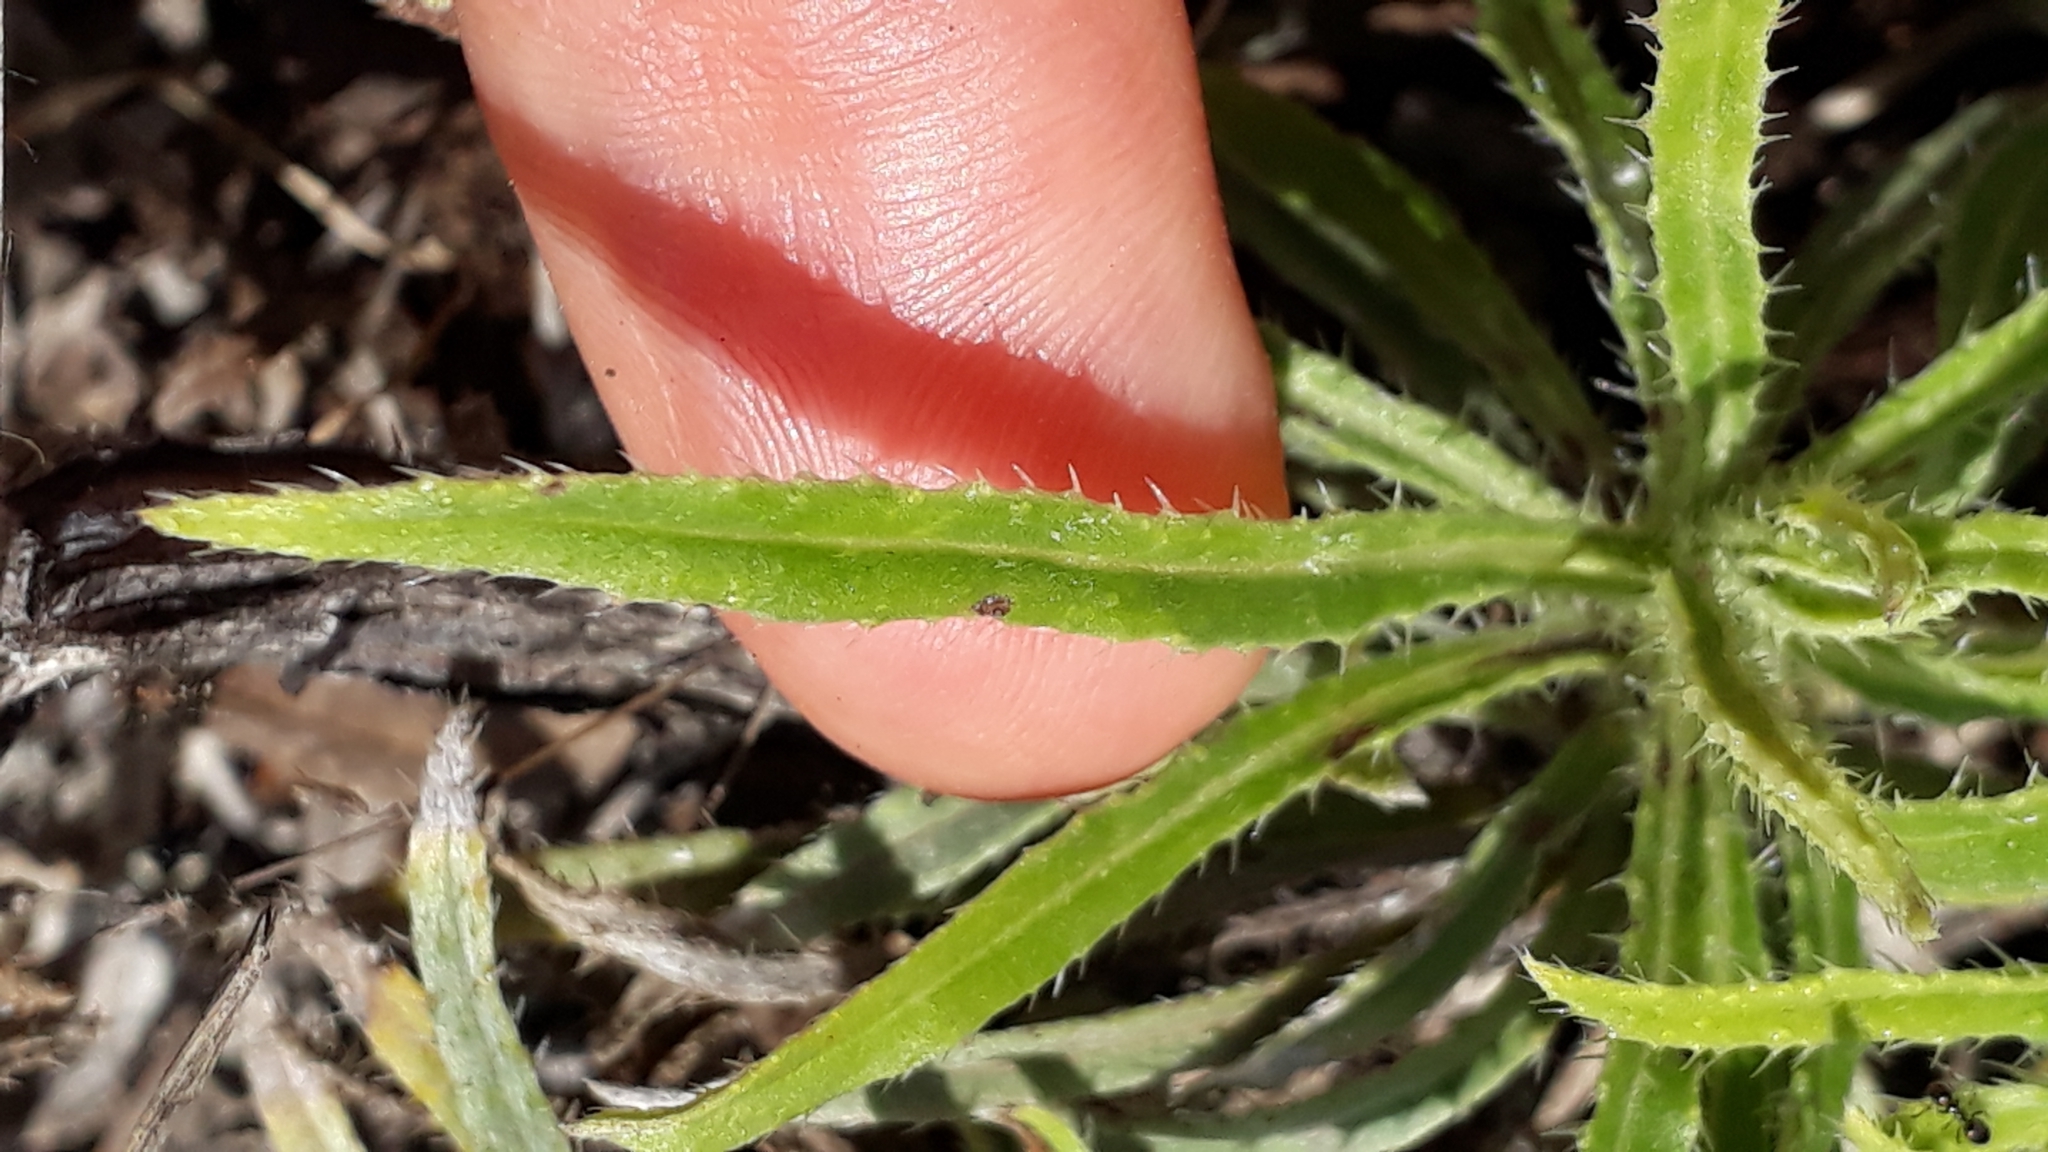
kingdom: Plantae
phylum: Tracheophyta
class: Magnoliopsida
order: Boraginales
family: Boraginaceae
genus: Echium
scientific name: Echium aculeatum
